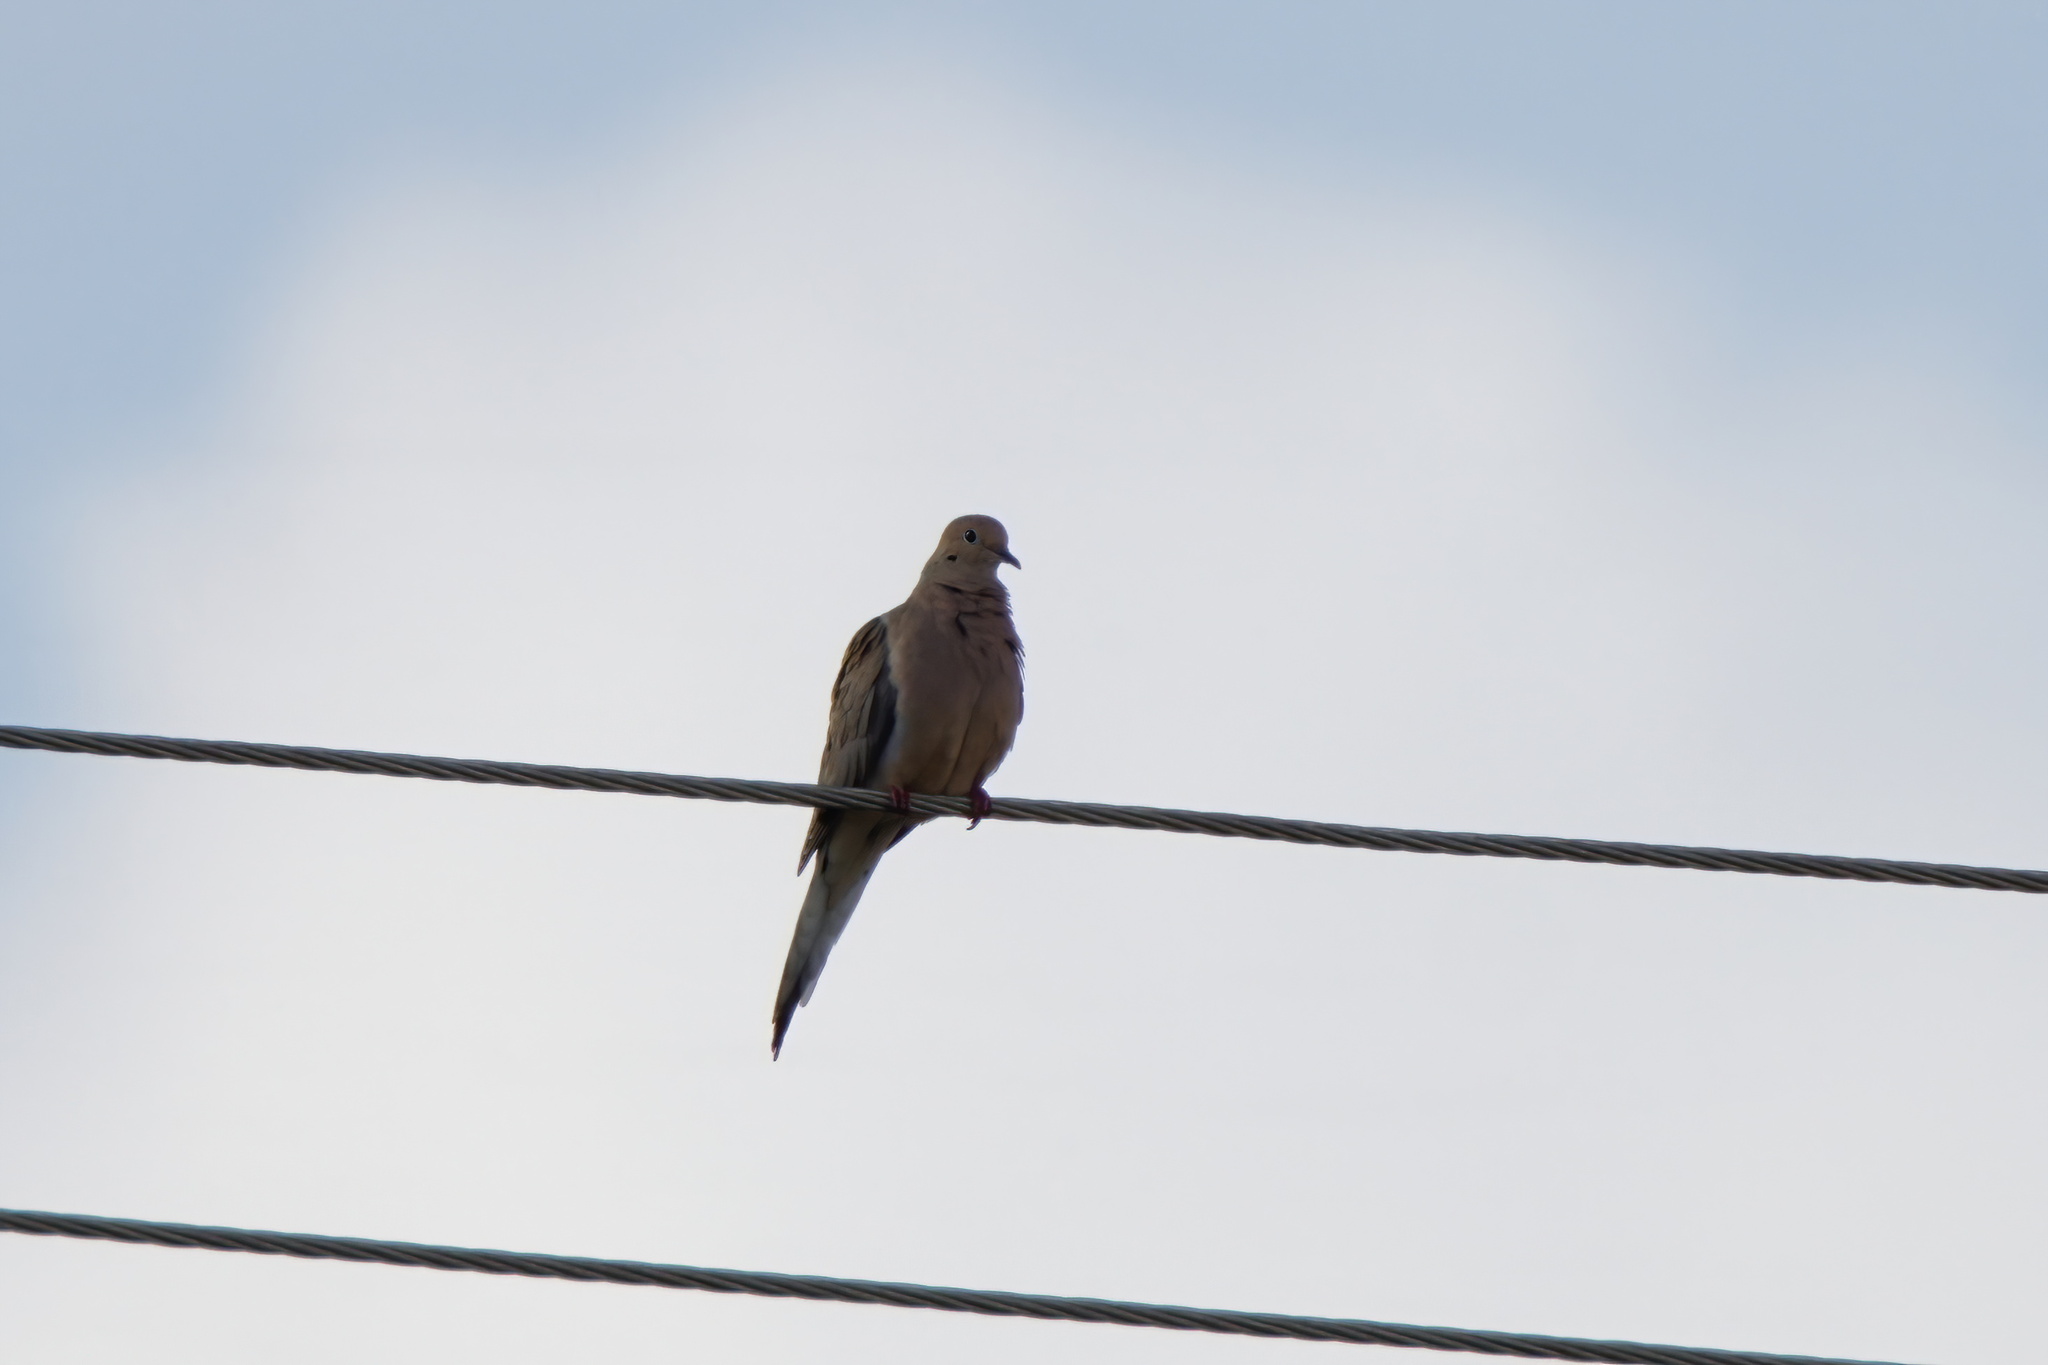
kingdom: Animalia
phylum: Chordata
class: Aves
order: Columbiformes
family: Columbidae
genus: Zenaida
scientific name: Zenaida macroura
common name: Mourning dove
